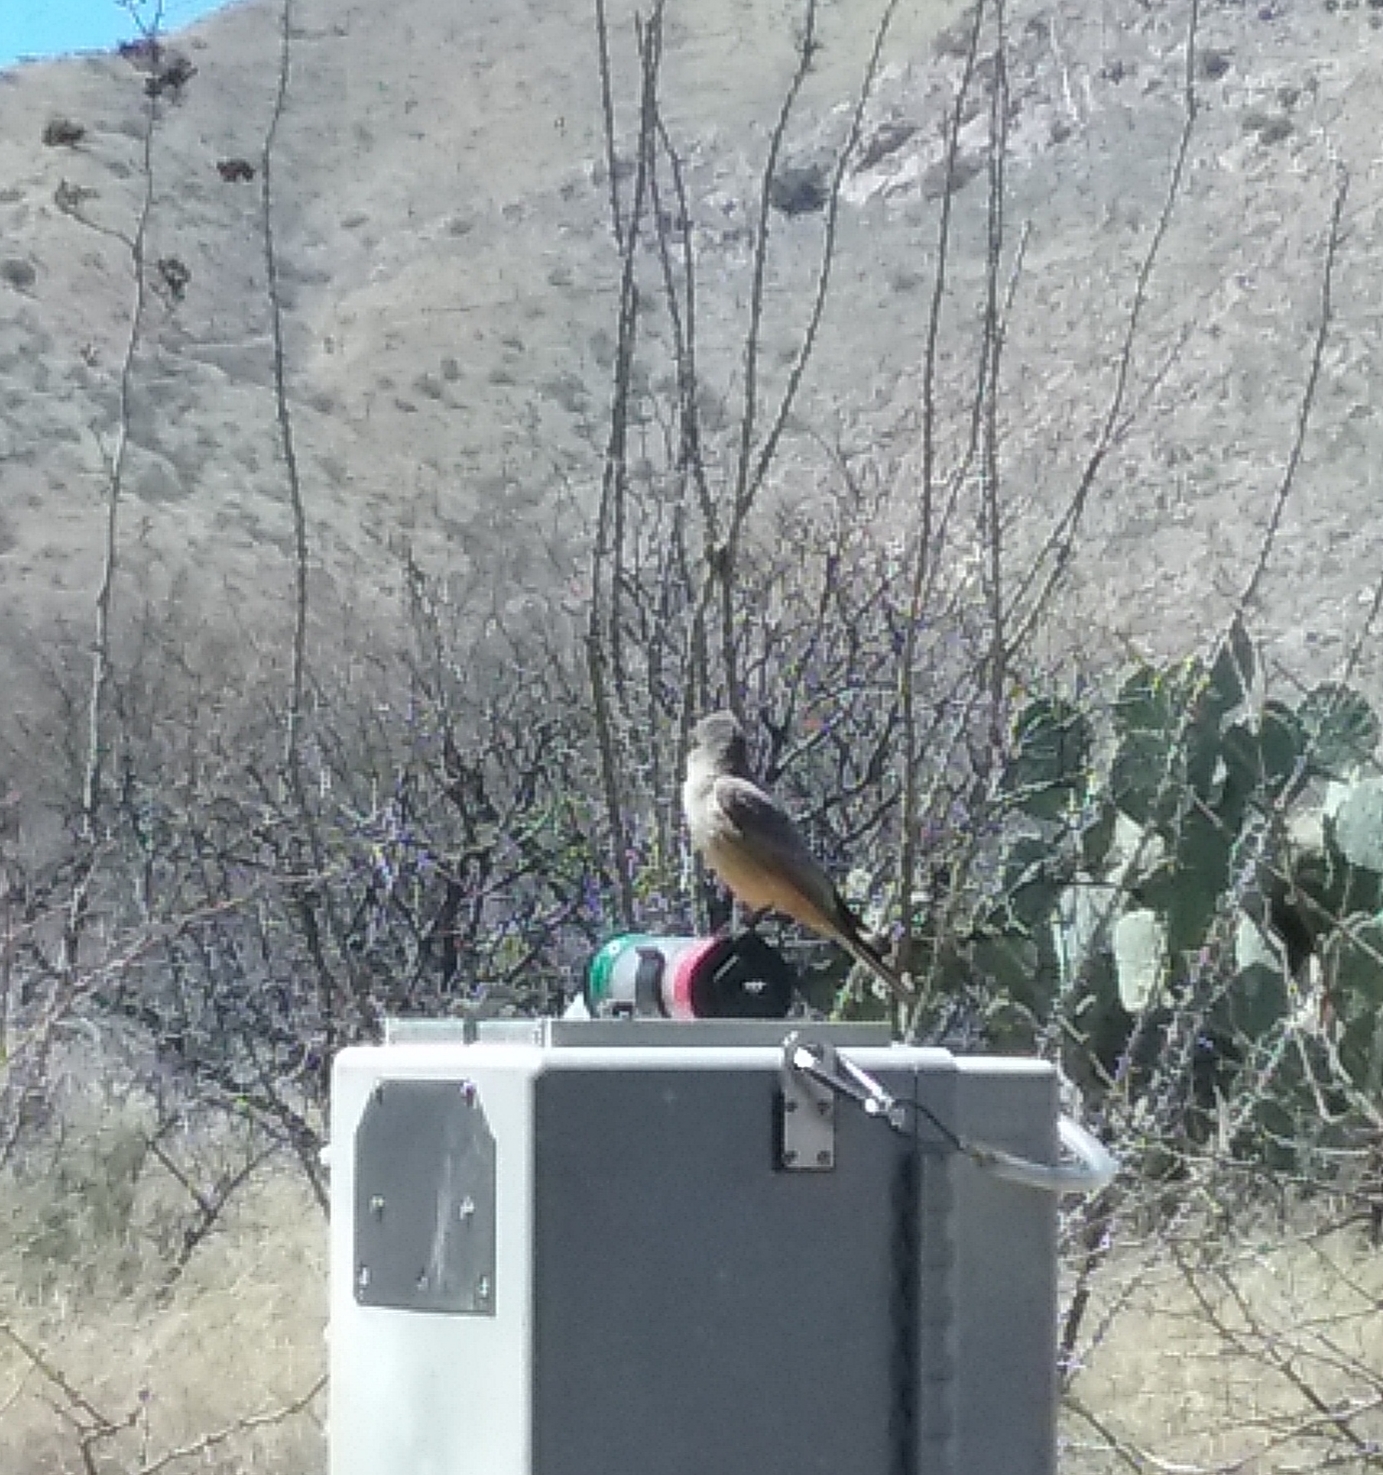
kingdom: Animalia
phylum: Chordata
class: Aves
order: Passeriformes
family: Tyrannidae
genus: Sayornis
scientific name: Sayornis saya
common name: Say's phoebe
